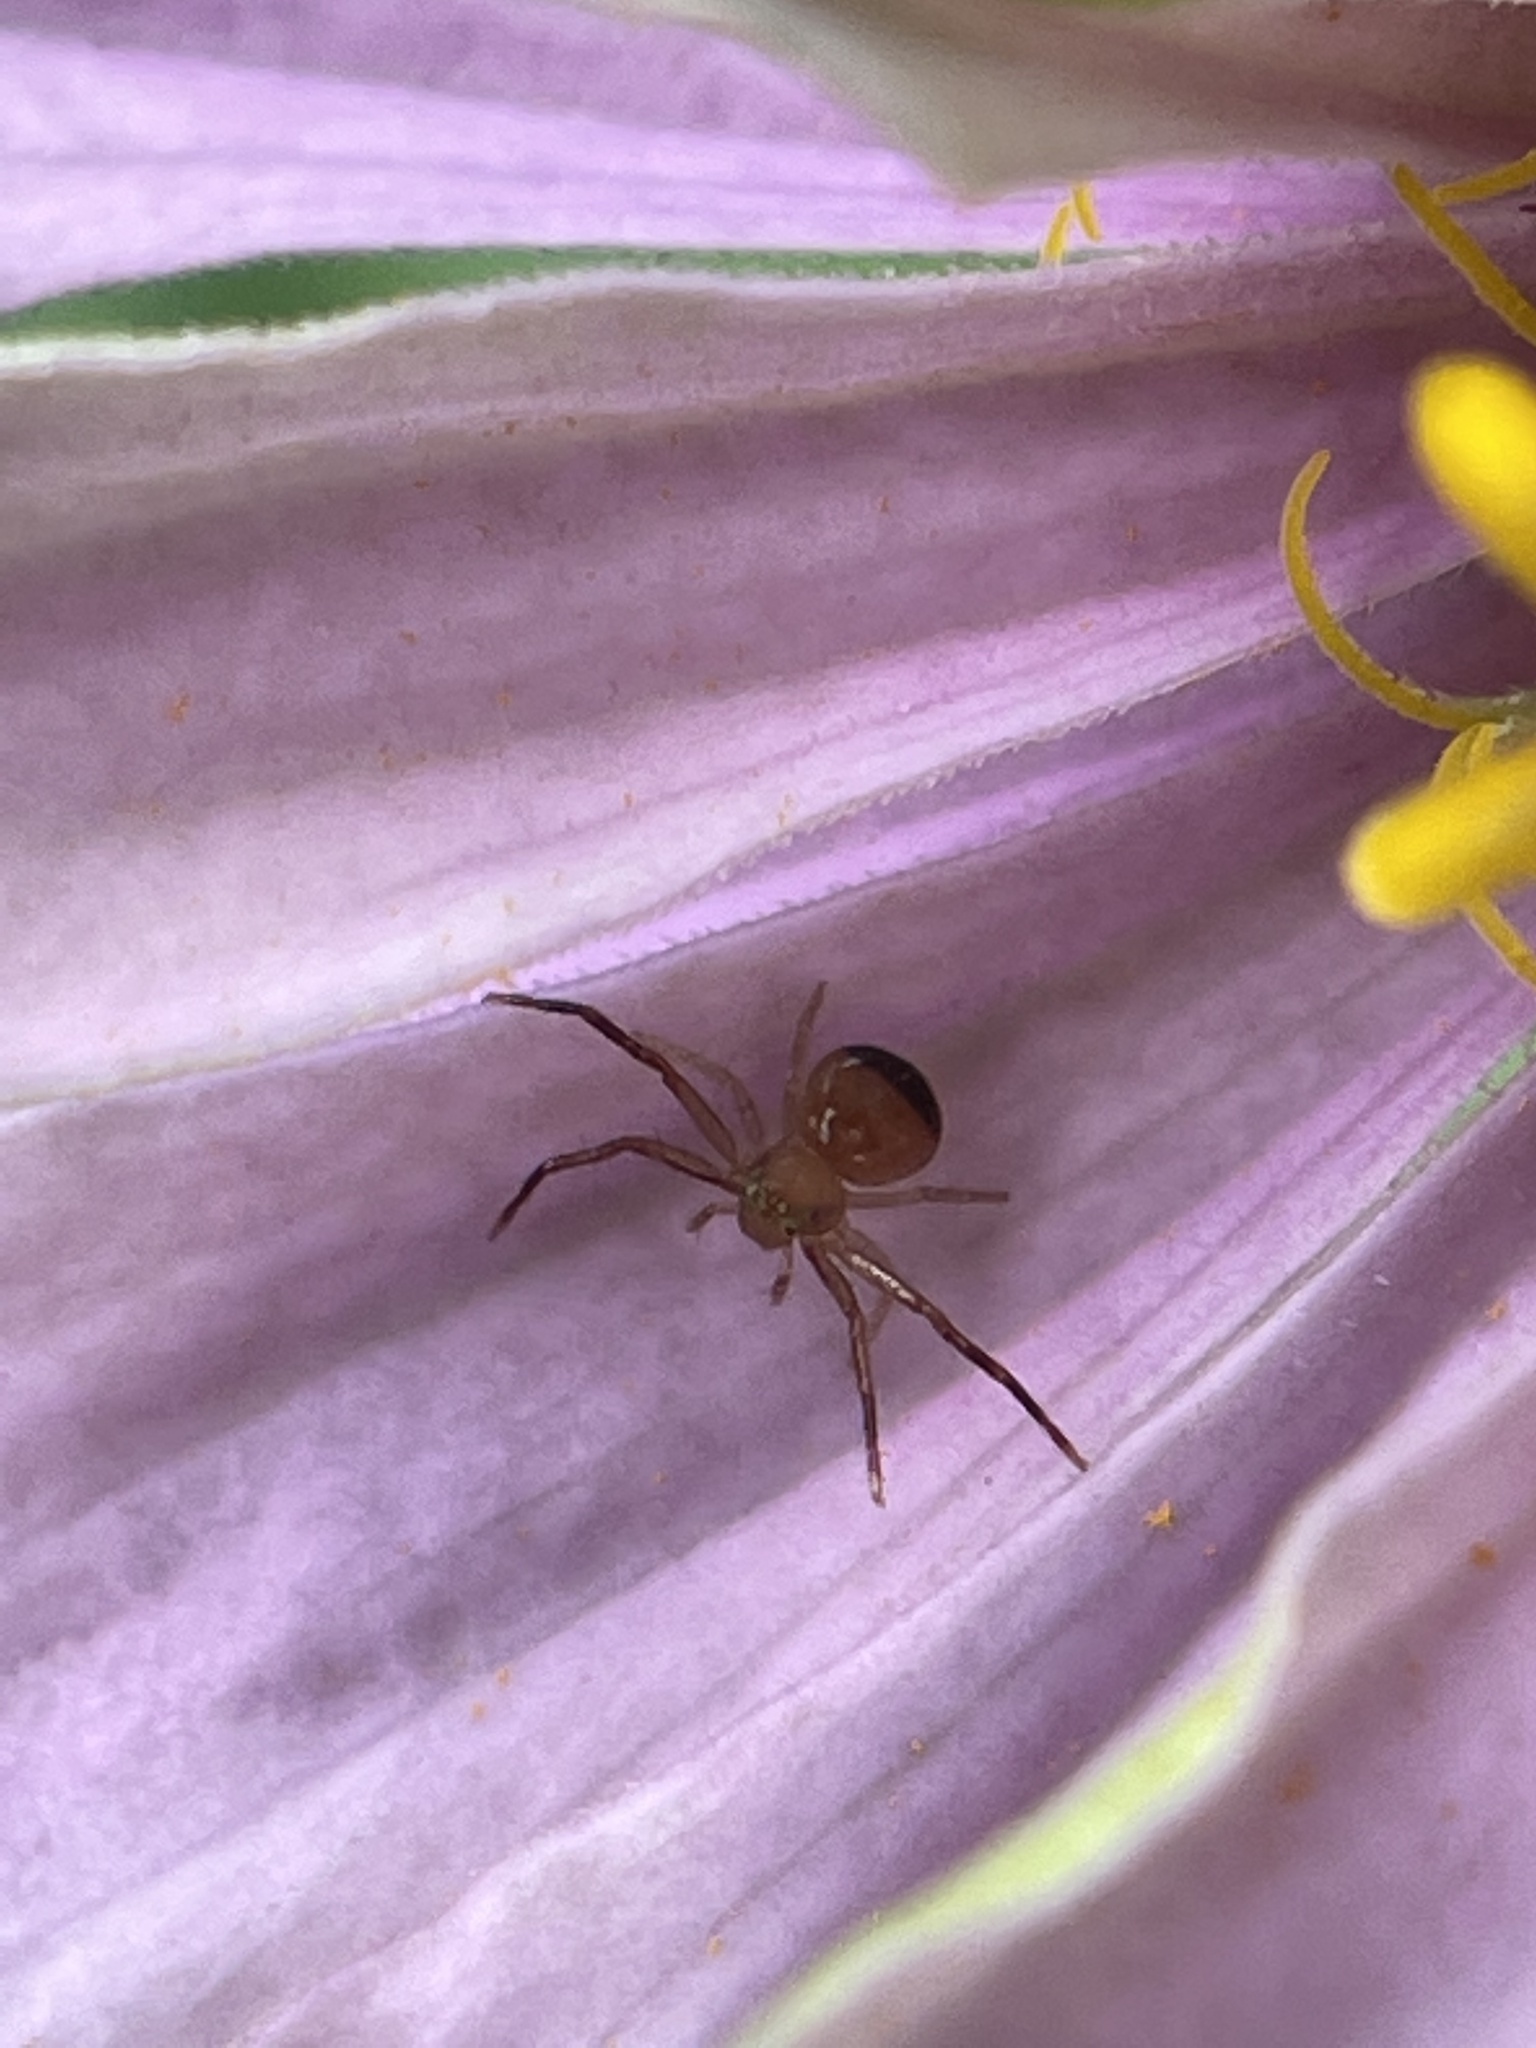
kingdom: Animalia
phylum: Arthropoda
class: Arachnida
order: Araneae
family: Thomisidae
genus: Synema
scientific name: Synema parvulum
